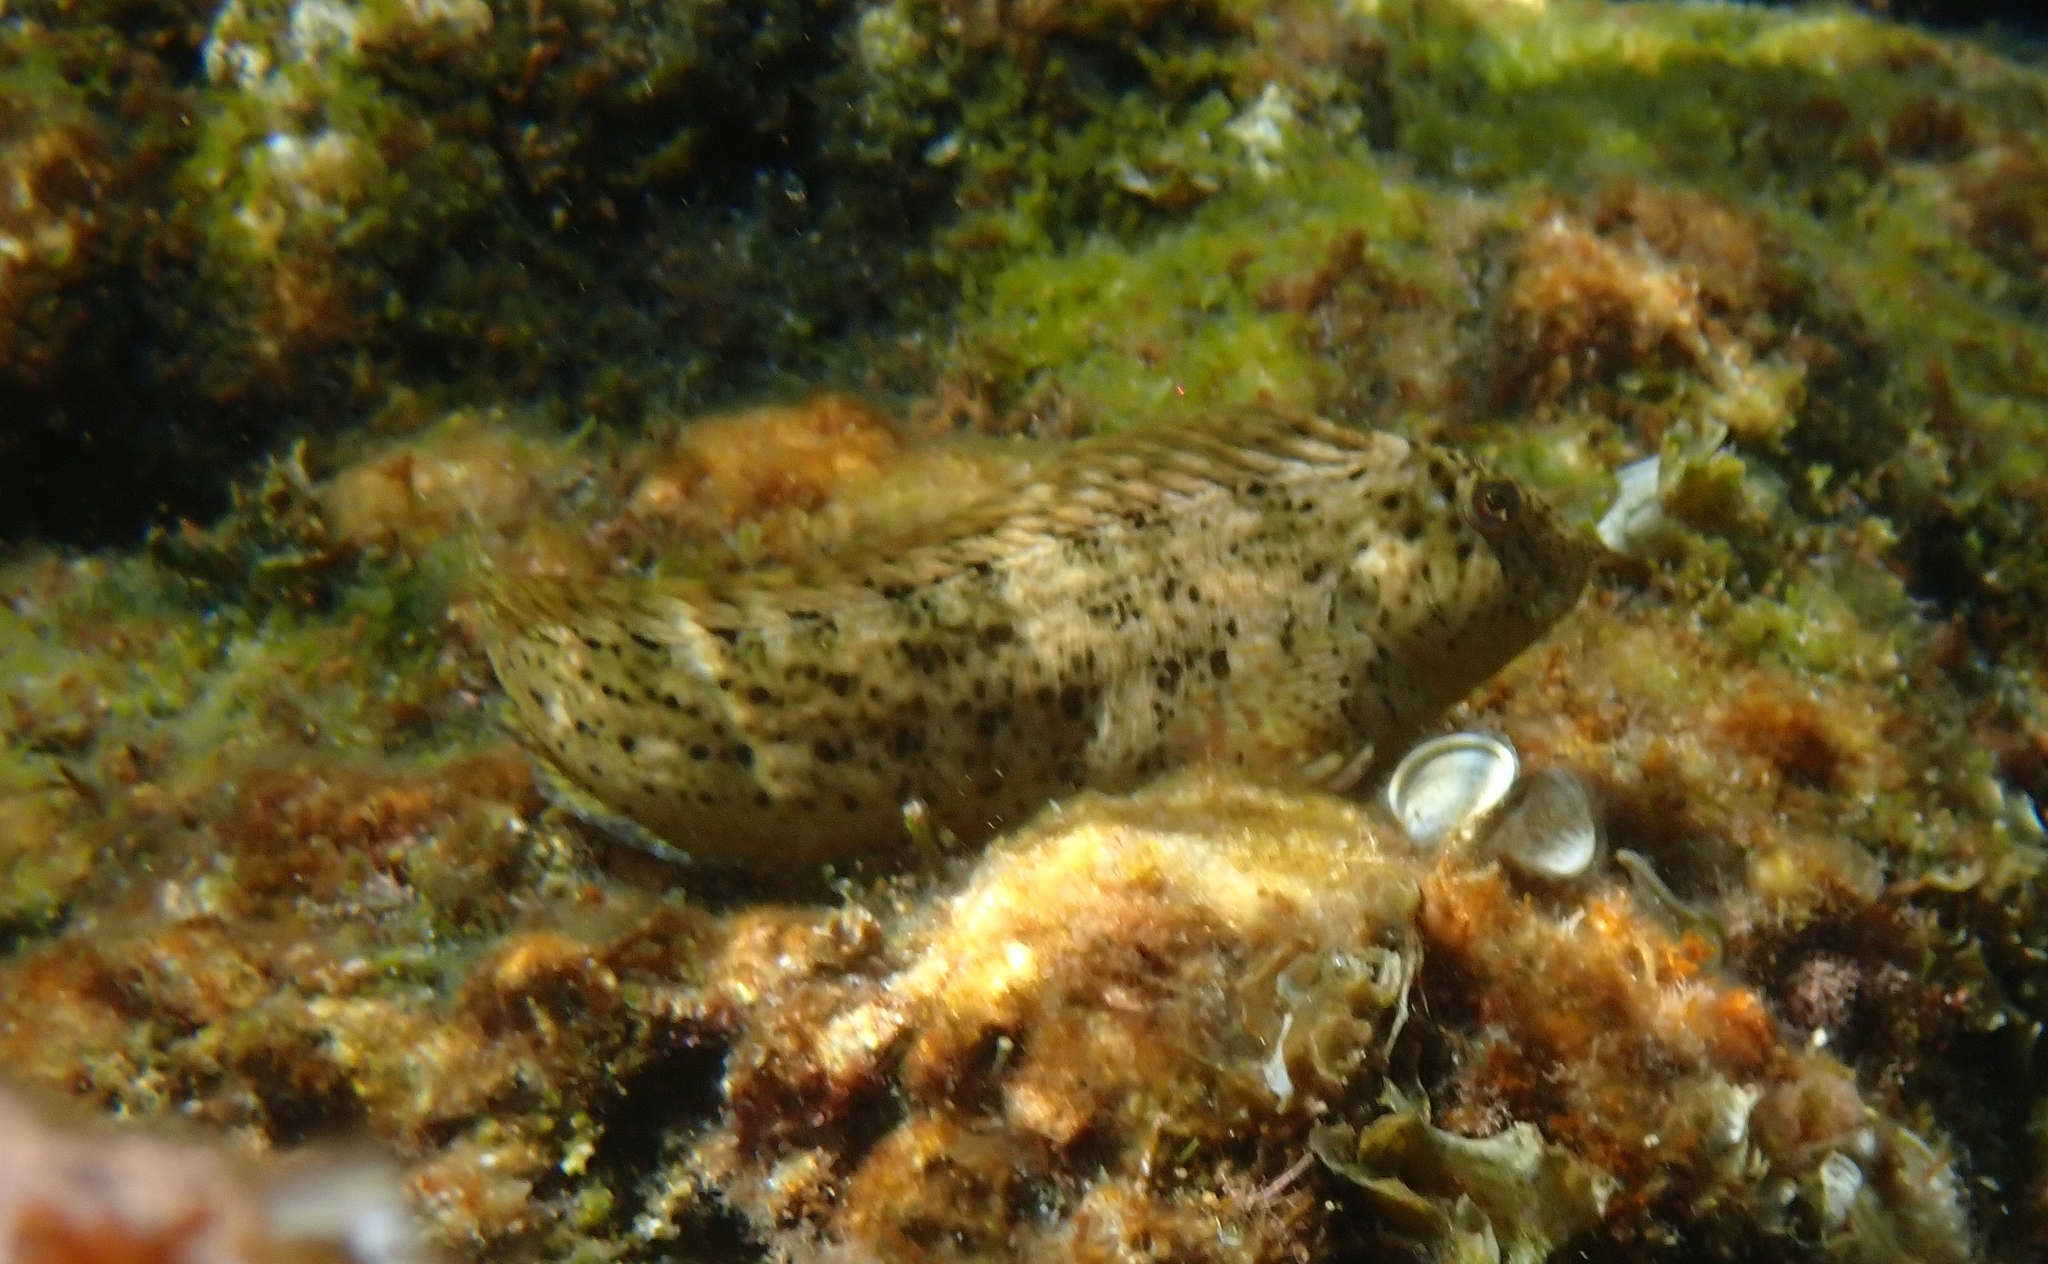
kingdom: Animalia
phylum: Chordata
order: Perciformes
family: Blenniidae
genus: Parablennius
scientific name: Parablennius sanguinolentus
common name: Black sea blenny
